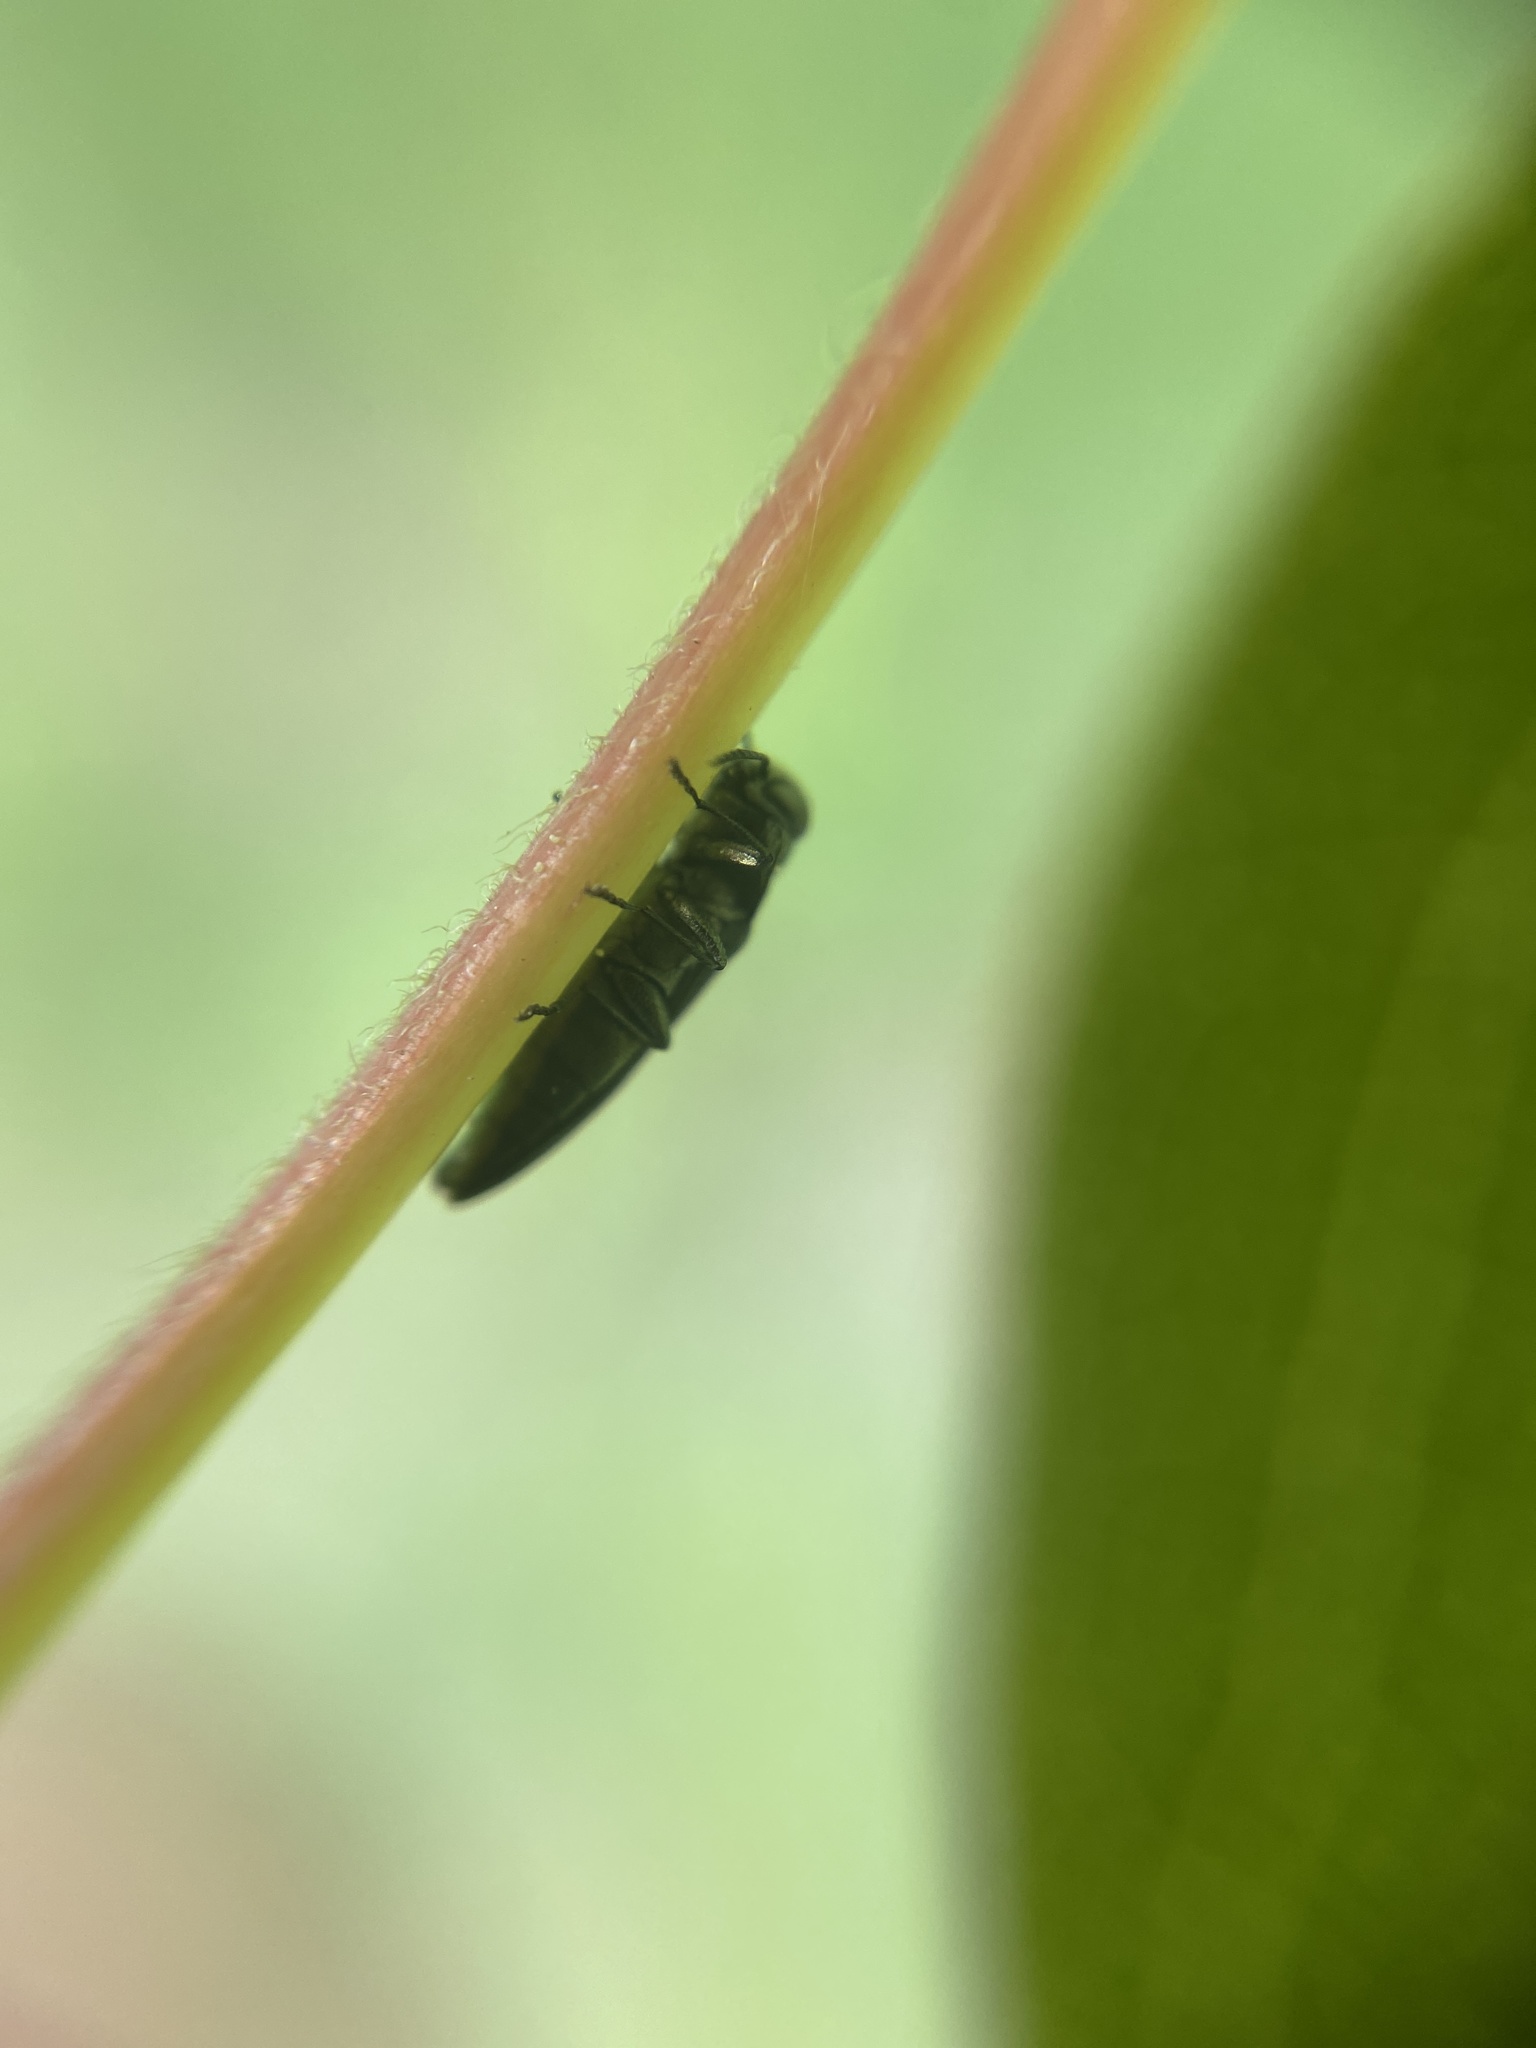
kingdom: Animalia
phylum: Arthropoda
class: Insecta
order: Coleoptera
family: Buprestidae
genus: Agrilus
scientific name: Agrilus angustulus
